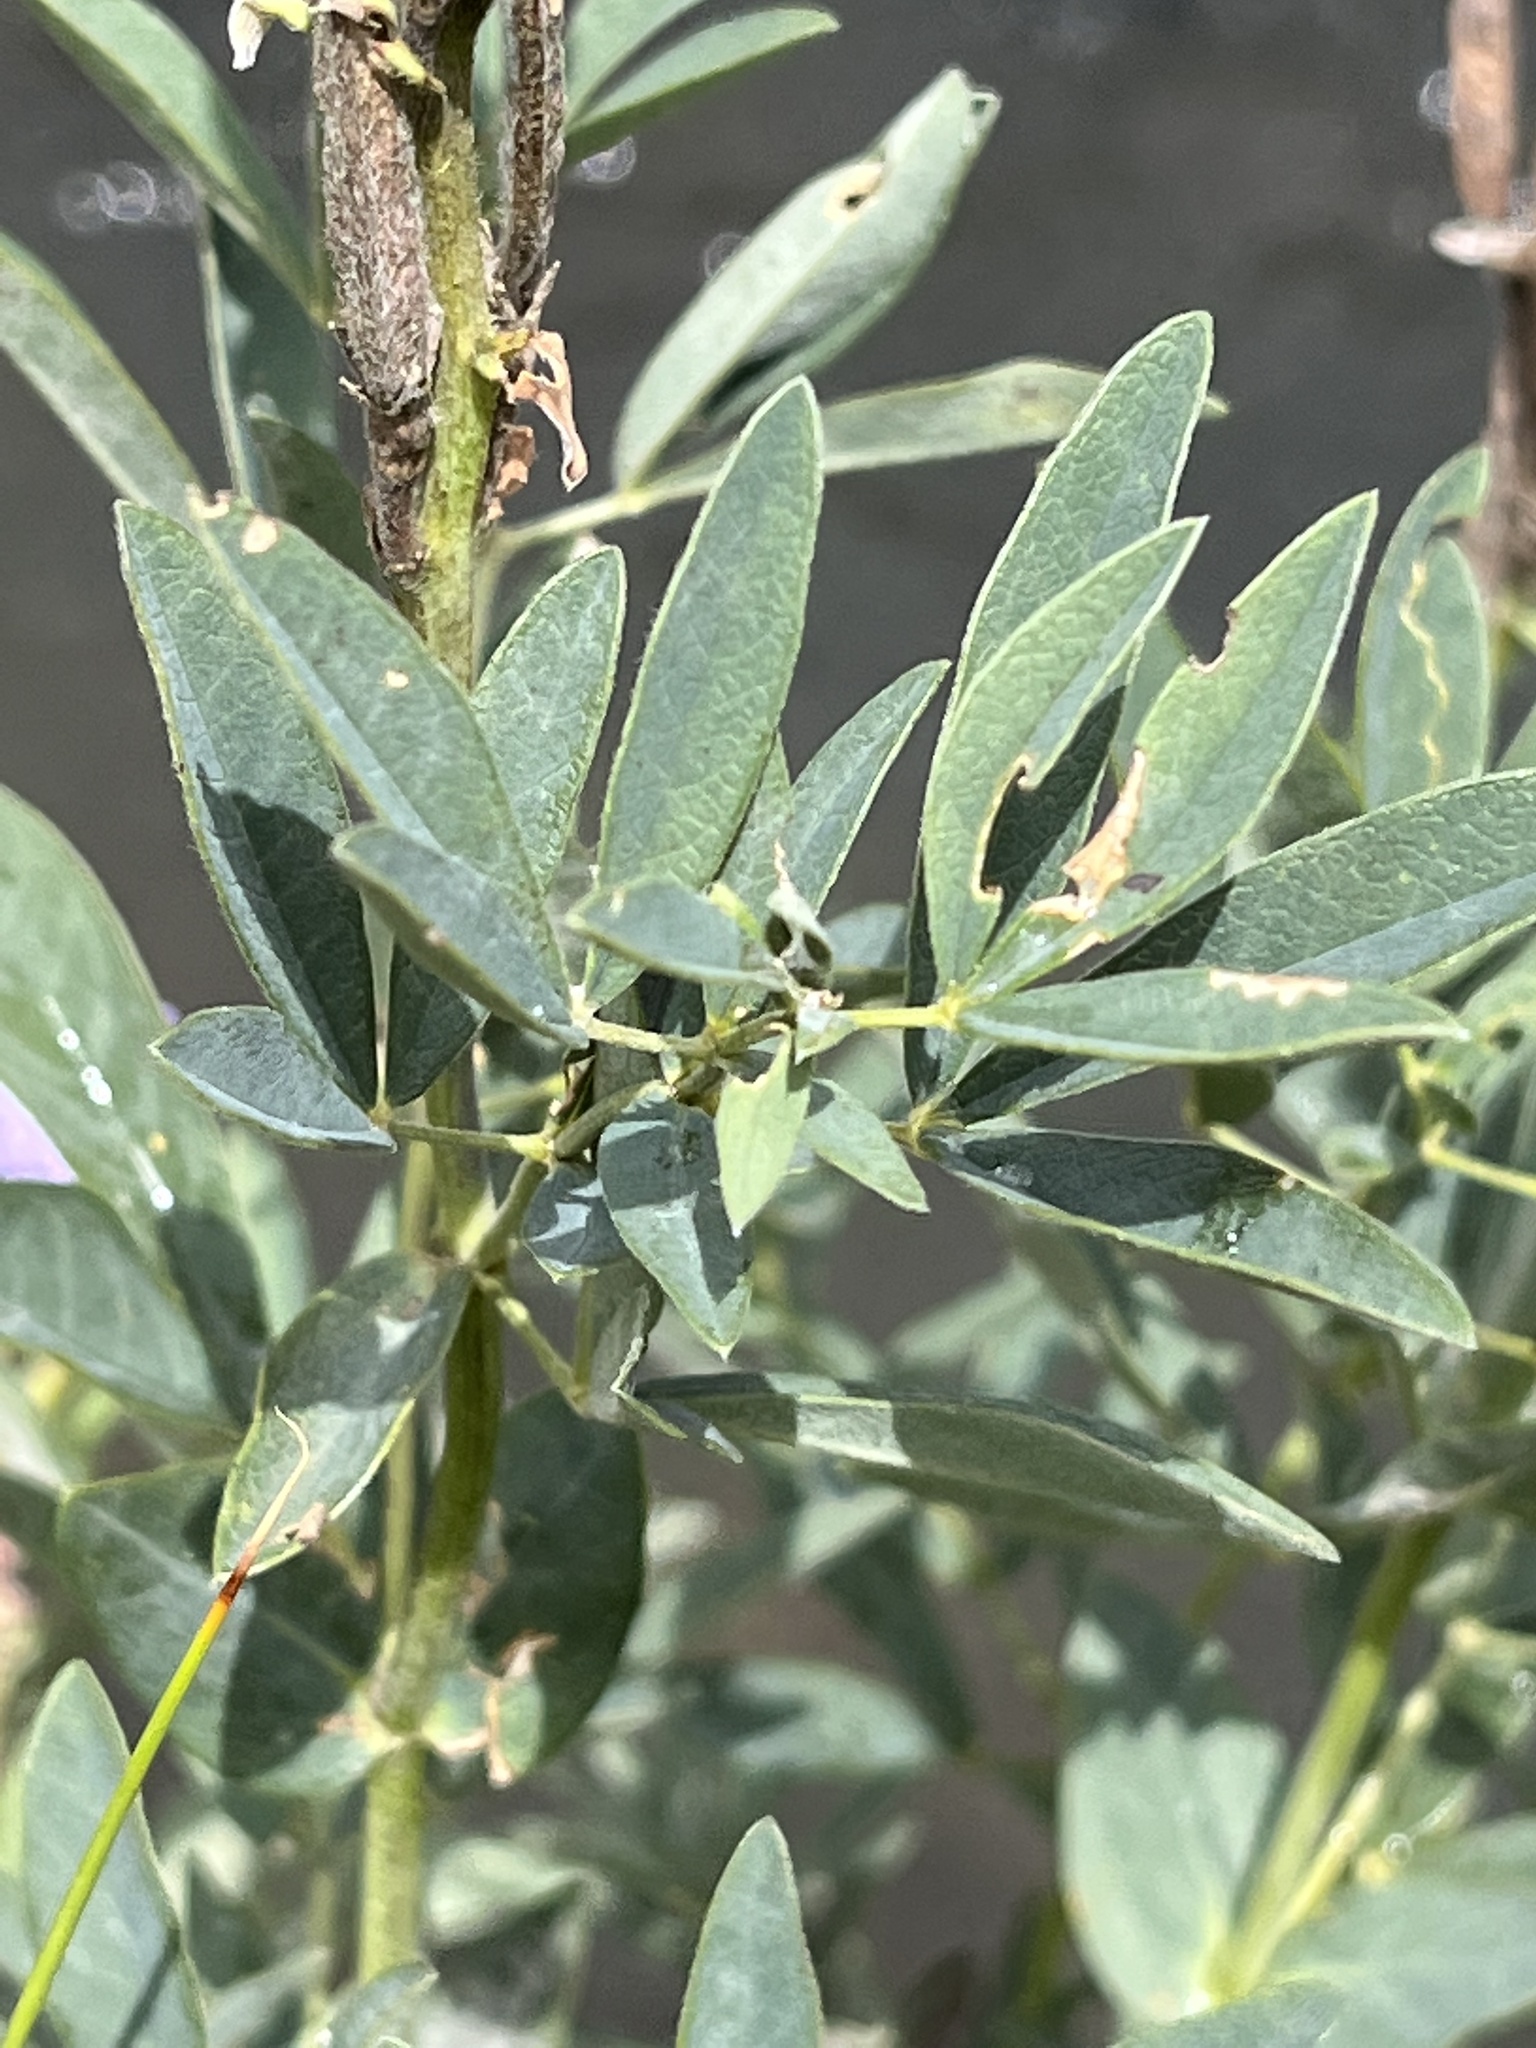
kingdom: Plantae
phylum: Tracheophyta
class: Magnoliopsida
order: Fabales
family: Fabaceae
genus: Thermopsis
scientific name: Thermopsis montana
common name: False lupin
